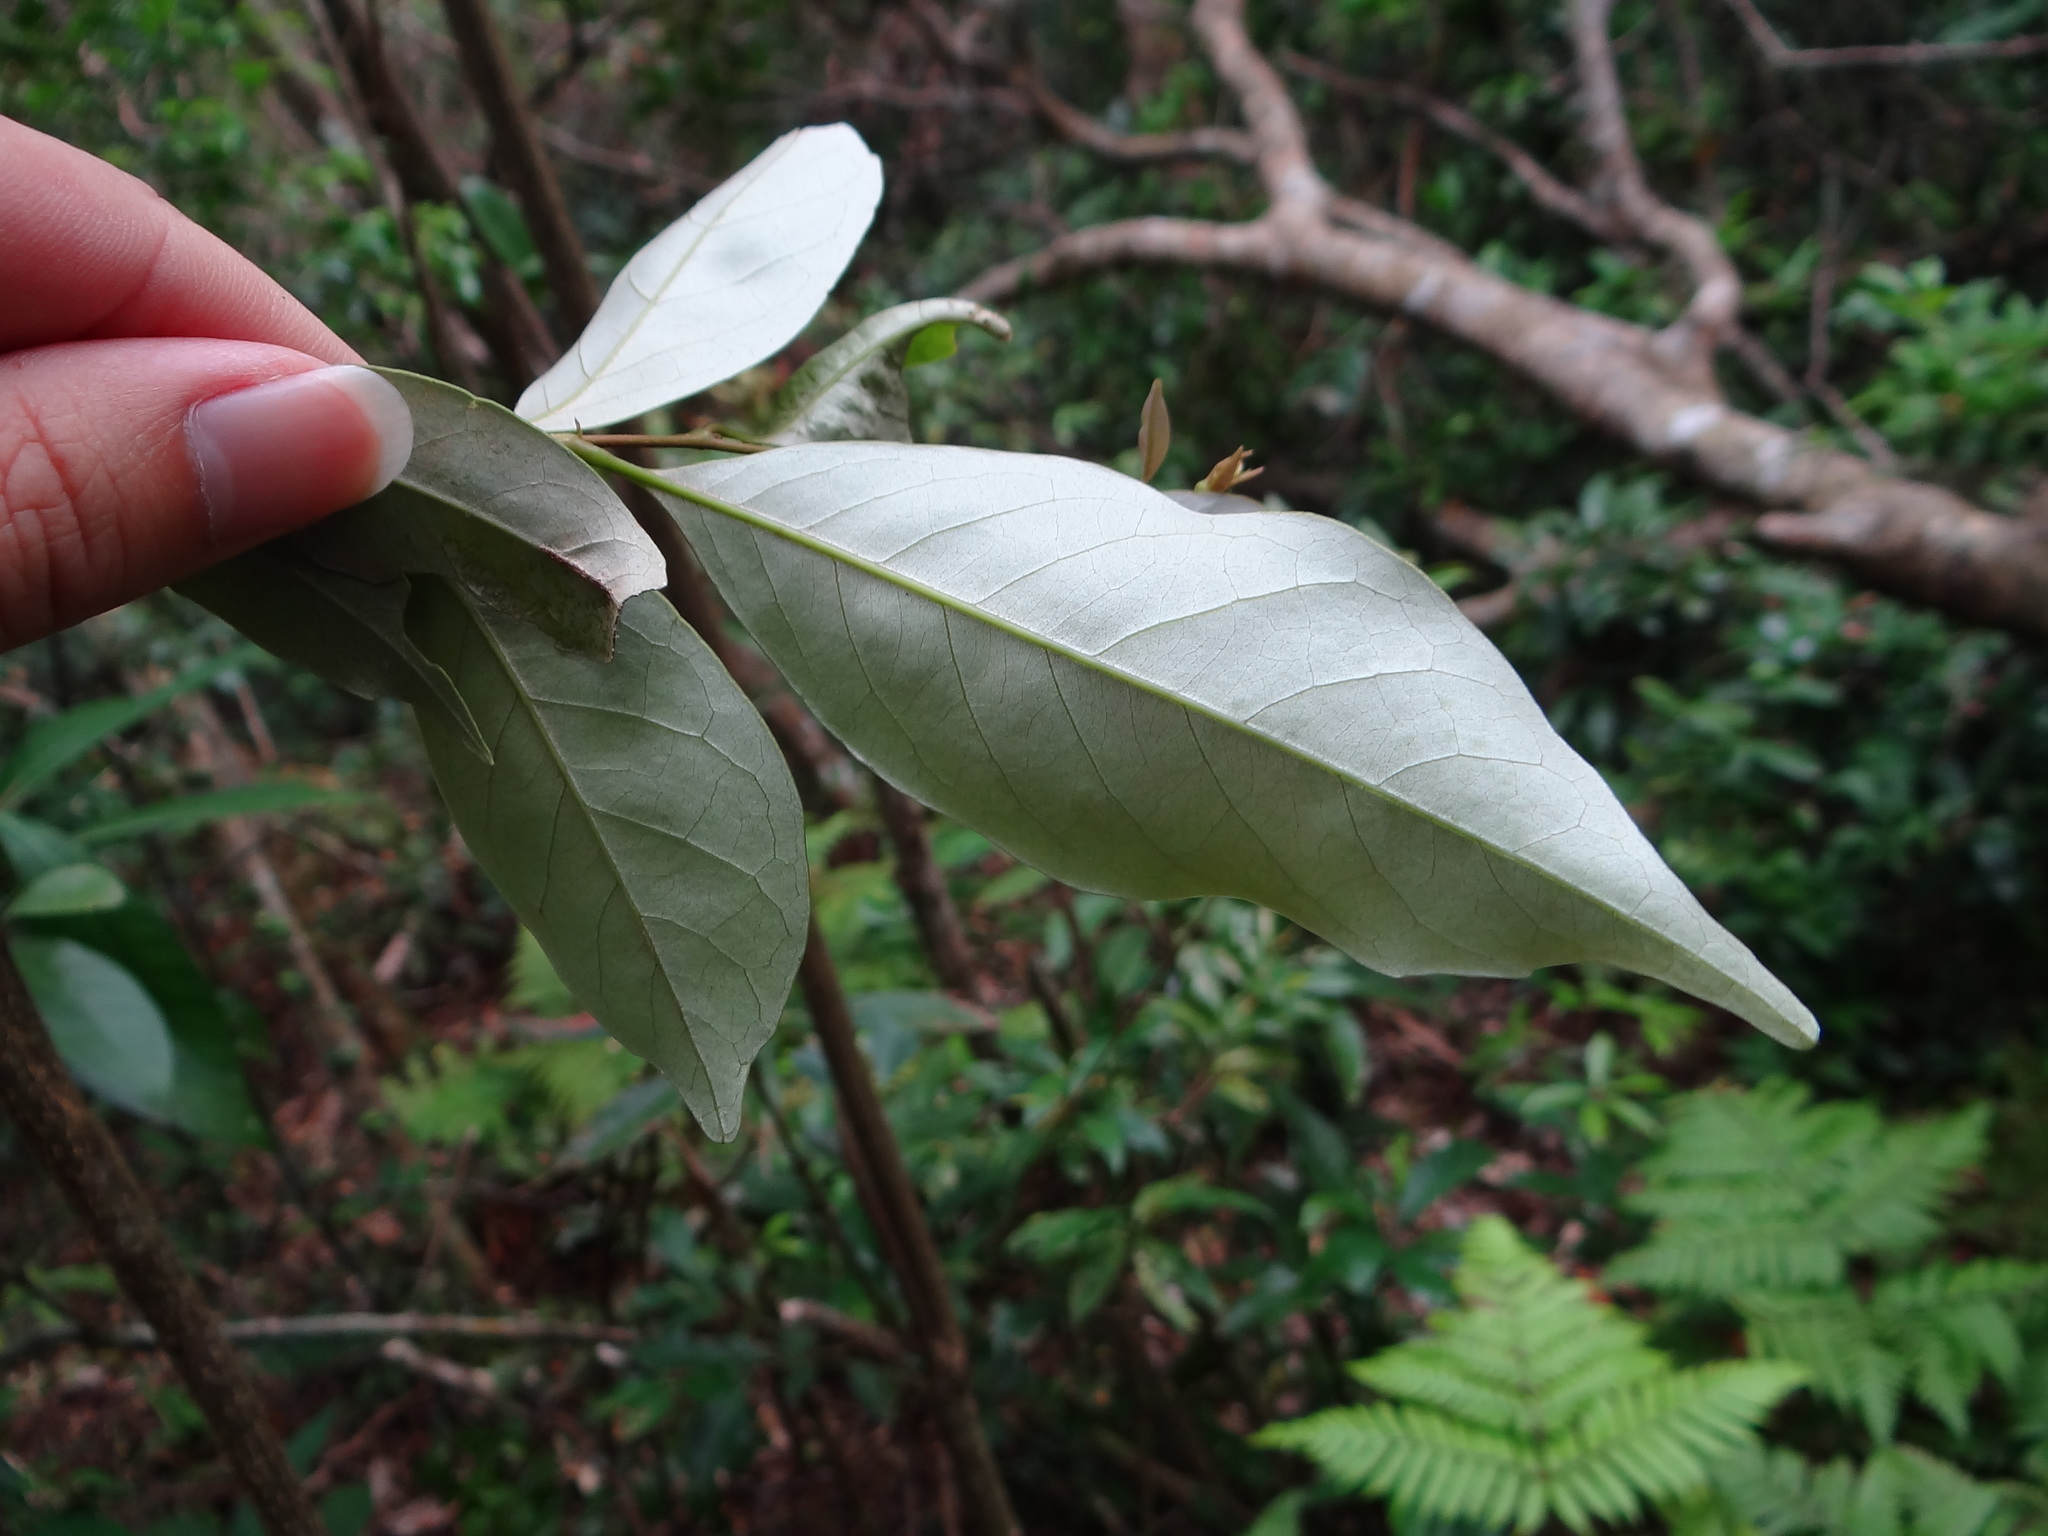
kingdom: Plantae
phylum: Tracheophyta
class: Magnoliopsida
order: Fagales
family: Fagaceae
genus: Castanopsis
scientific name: Castanopsis carlesii
